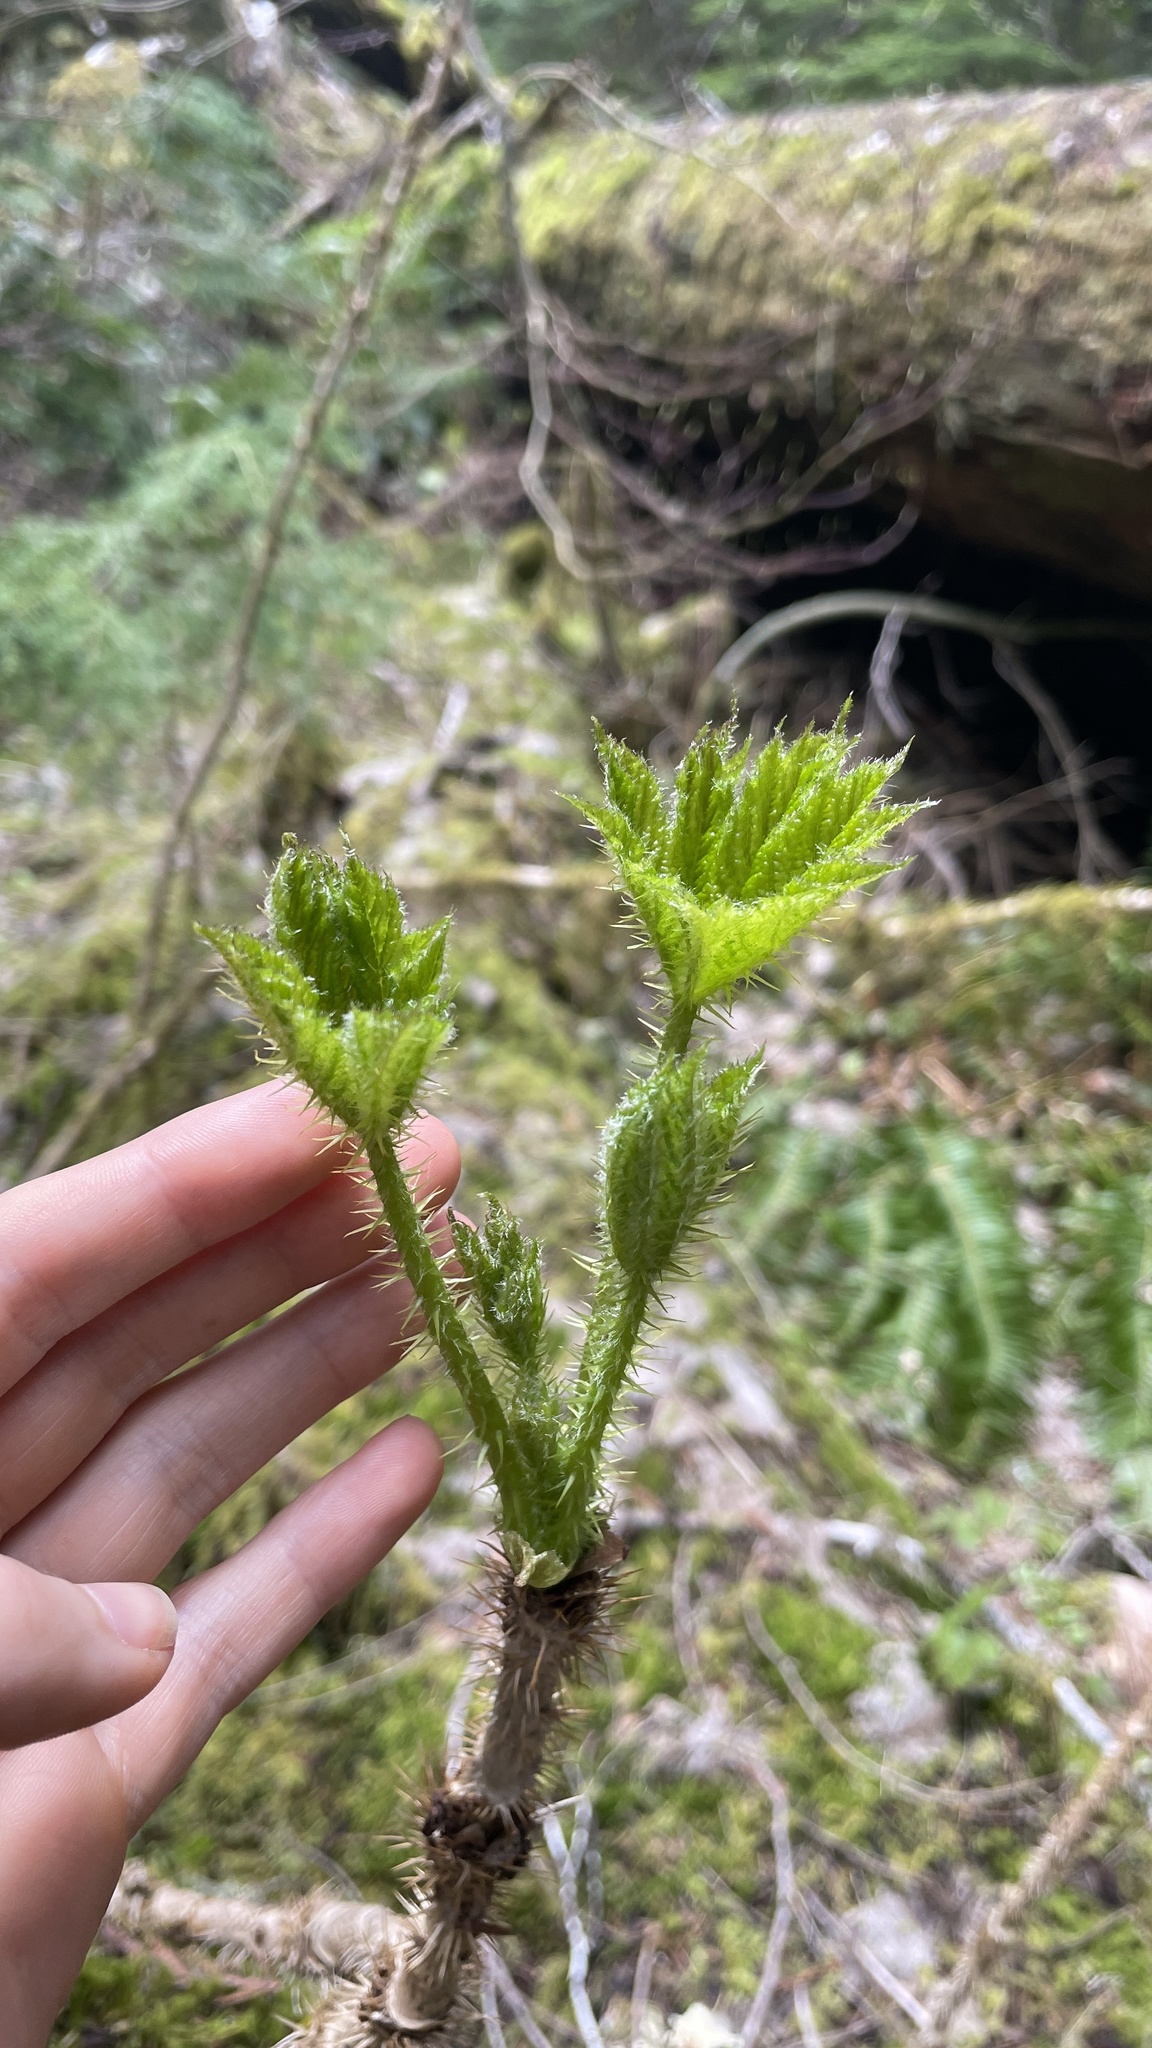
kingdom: Plantae
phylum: Tracheophyta
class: Magnoliopsida
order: Apiales
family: Araliaceae
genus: Oplopanax
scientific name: Oplopanax horridus
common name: Devil's walking-stick
